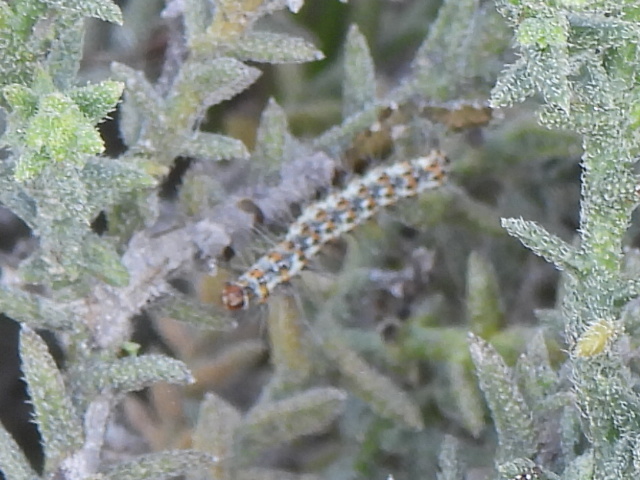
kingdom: Animalia
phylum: Arthropoda
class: Insecta
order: Lepidoptera
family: Erebidae
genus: Utetheisa
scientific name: Utetheisa pulchella
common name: Crimson speckled
